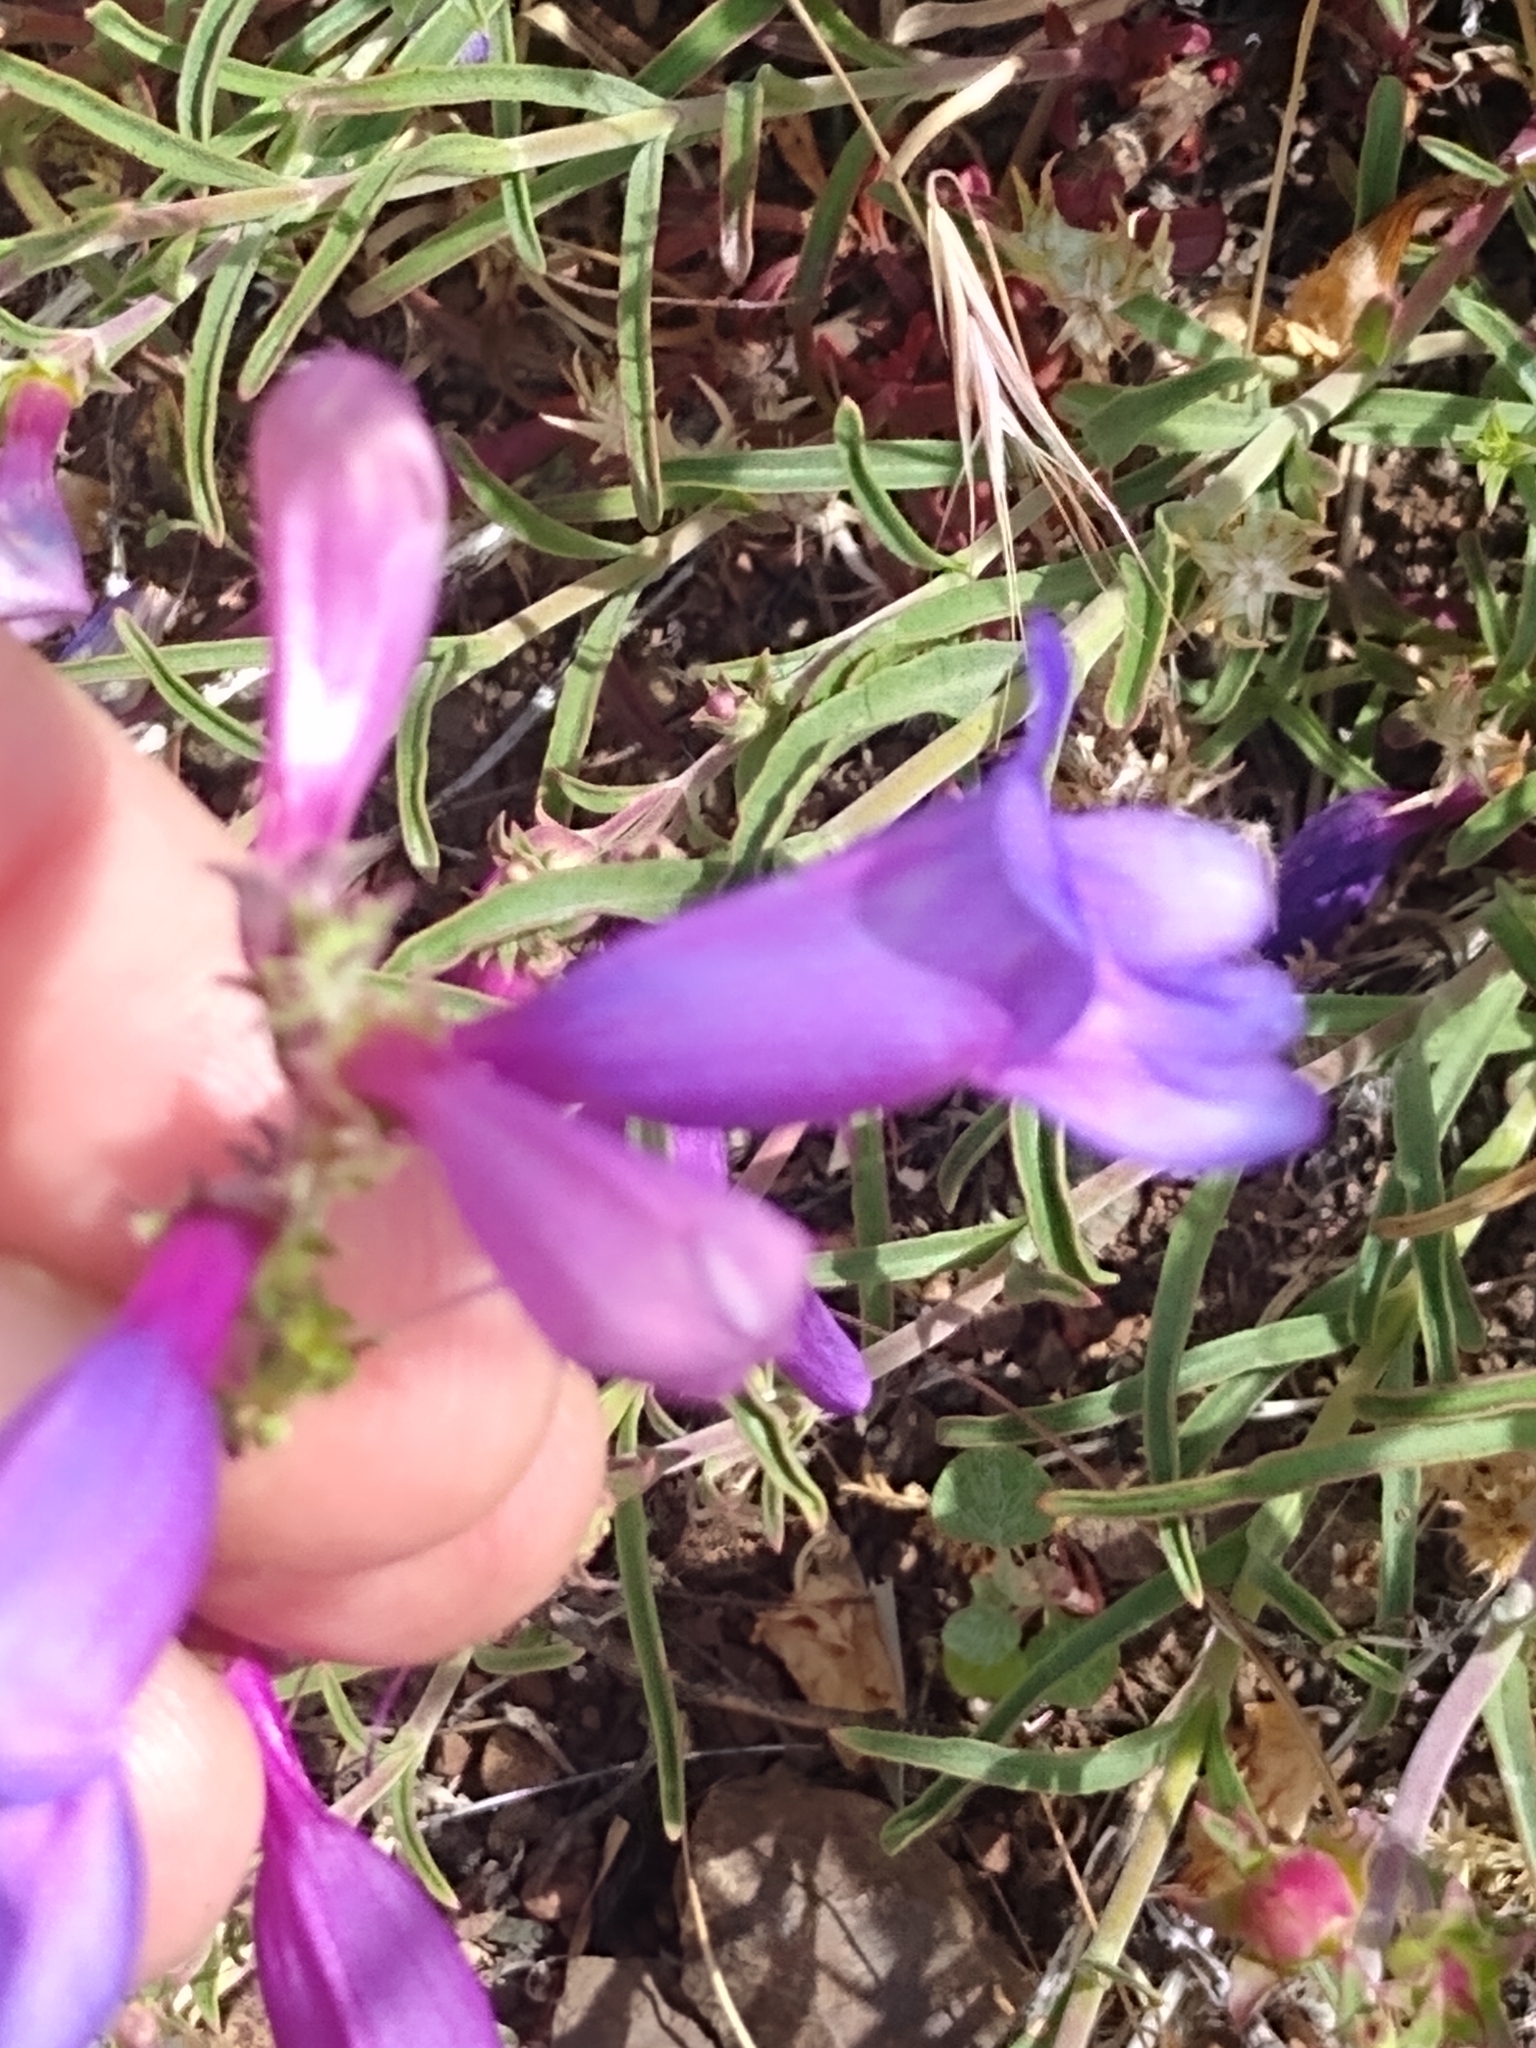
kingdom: Plantae
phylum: Tracheophyta
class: Magnoliopsida
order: Lamiales
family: Plantaginaceae
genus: Penstemon
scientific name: Penstemon heterophyllus
